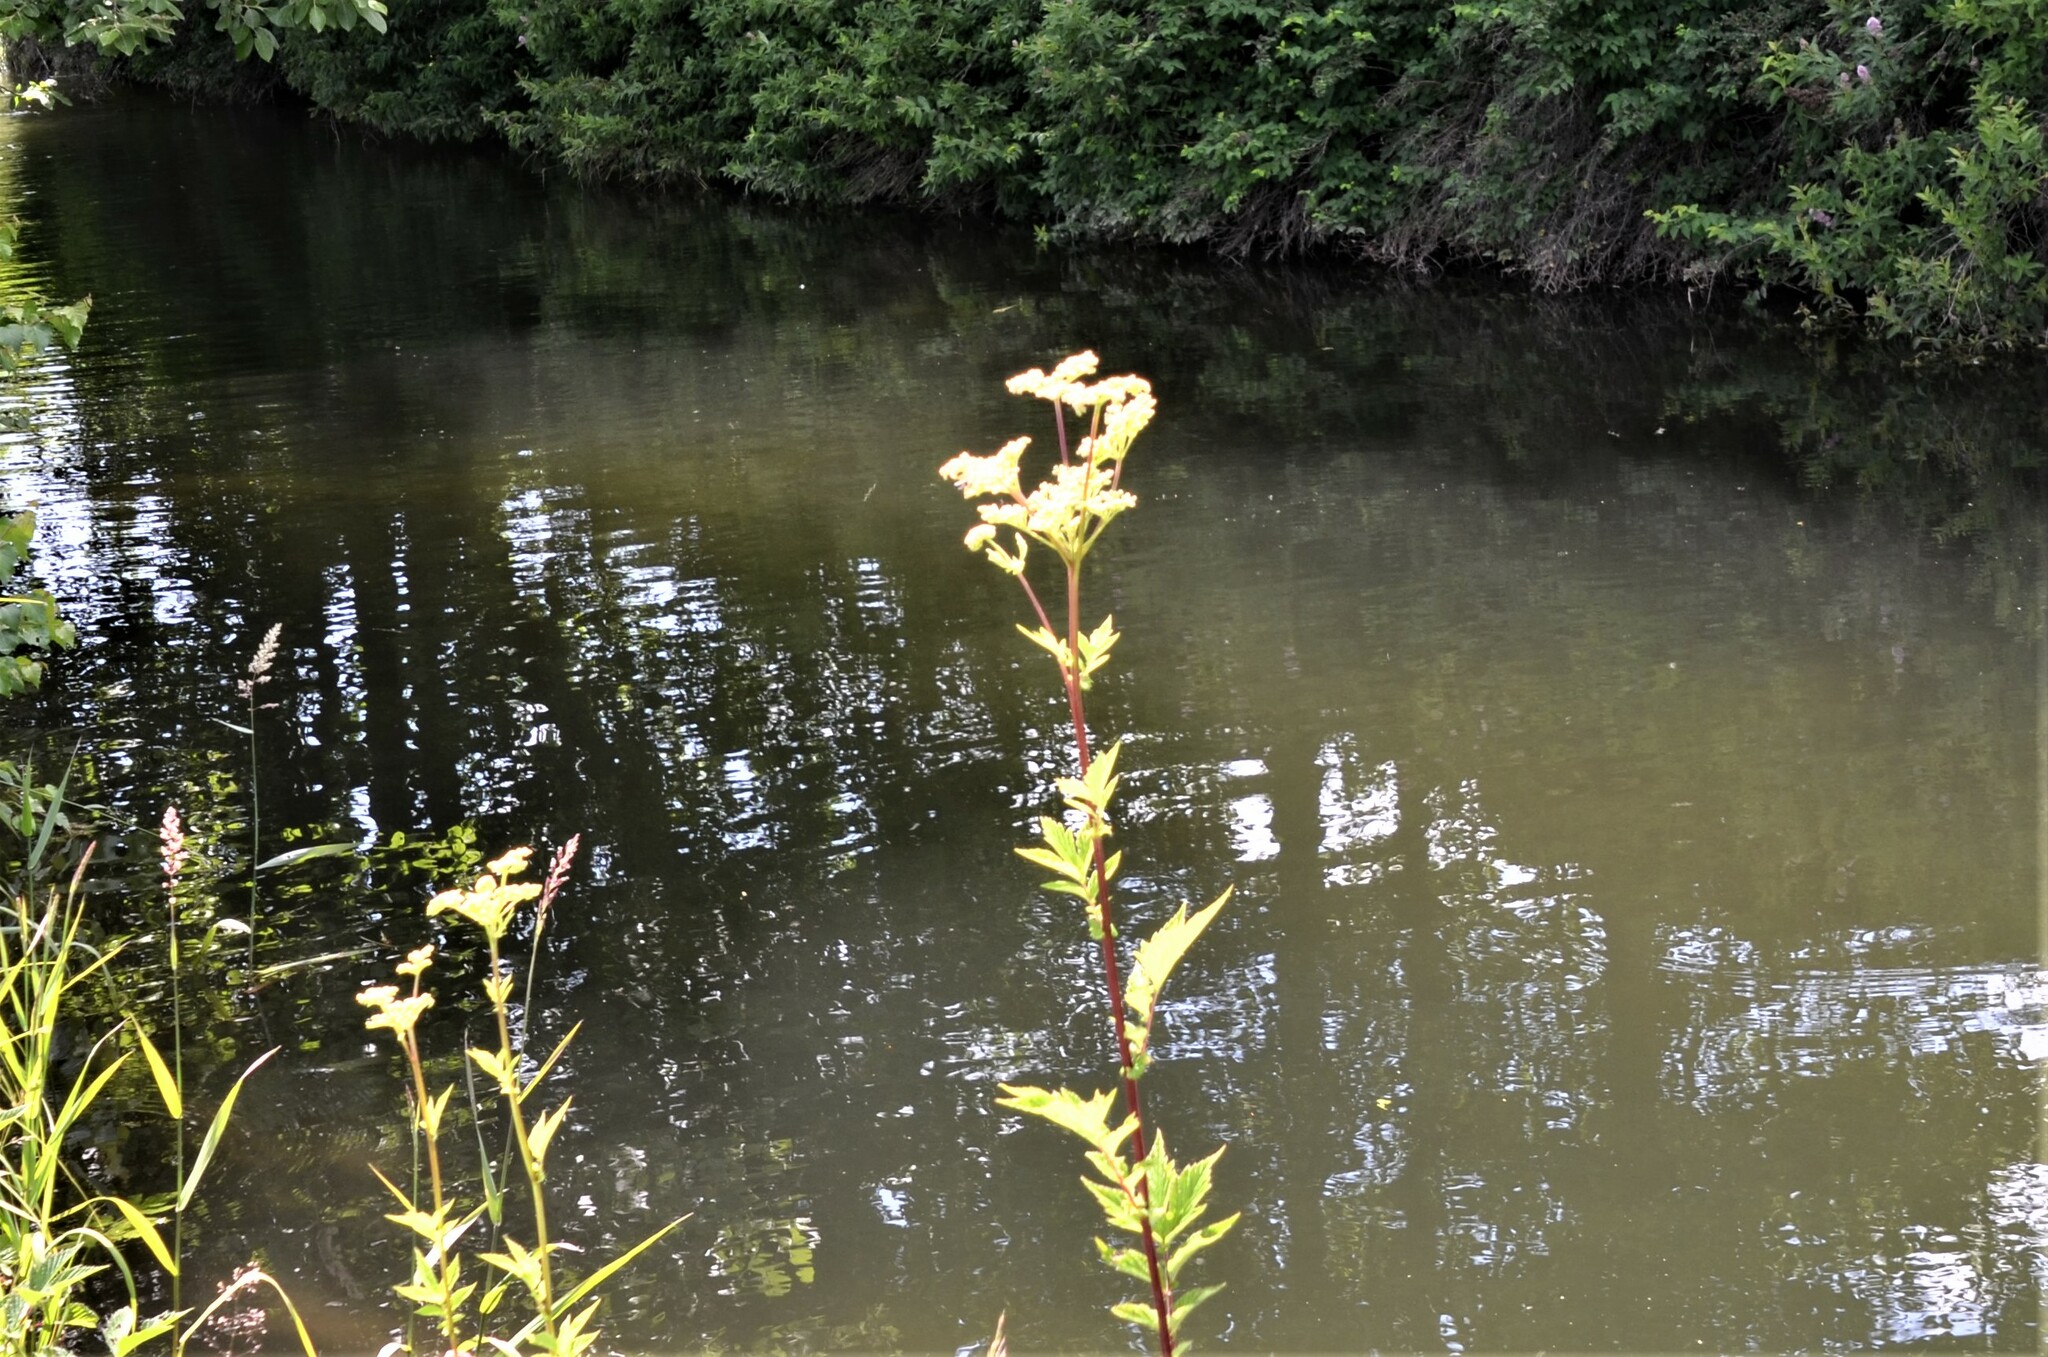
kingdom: Plantae
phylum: Tracheophyta
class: Magnoliopsida
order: Rosales
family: Rosaceae
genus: Filipendula
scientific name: Filipendula ulmaria
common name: Meadowsweet
